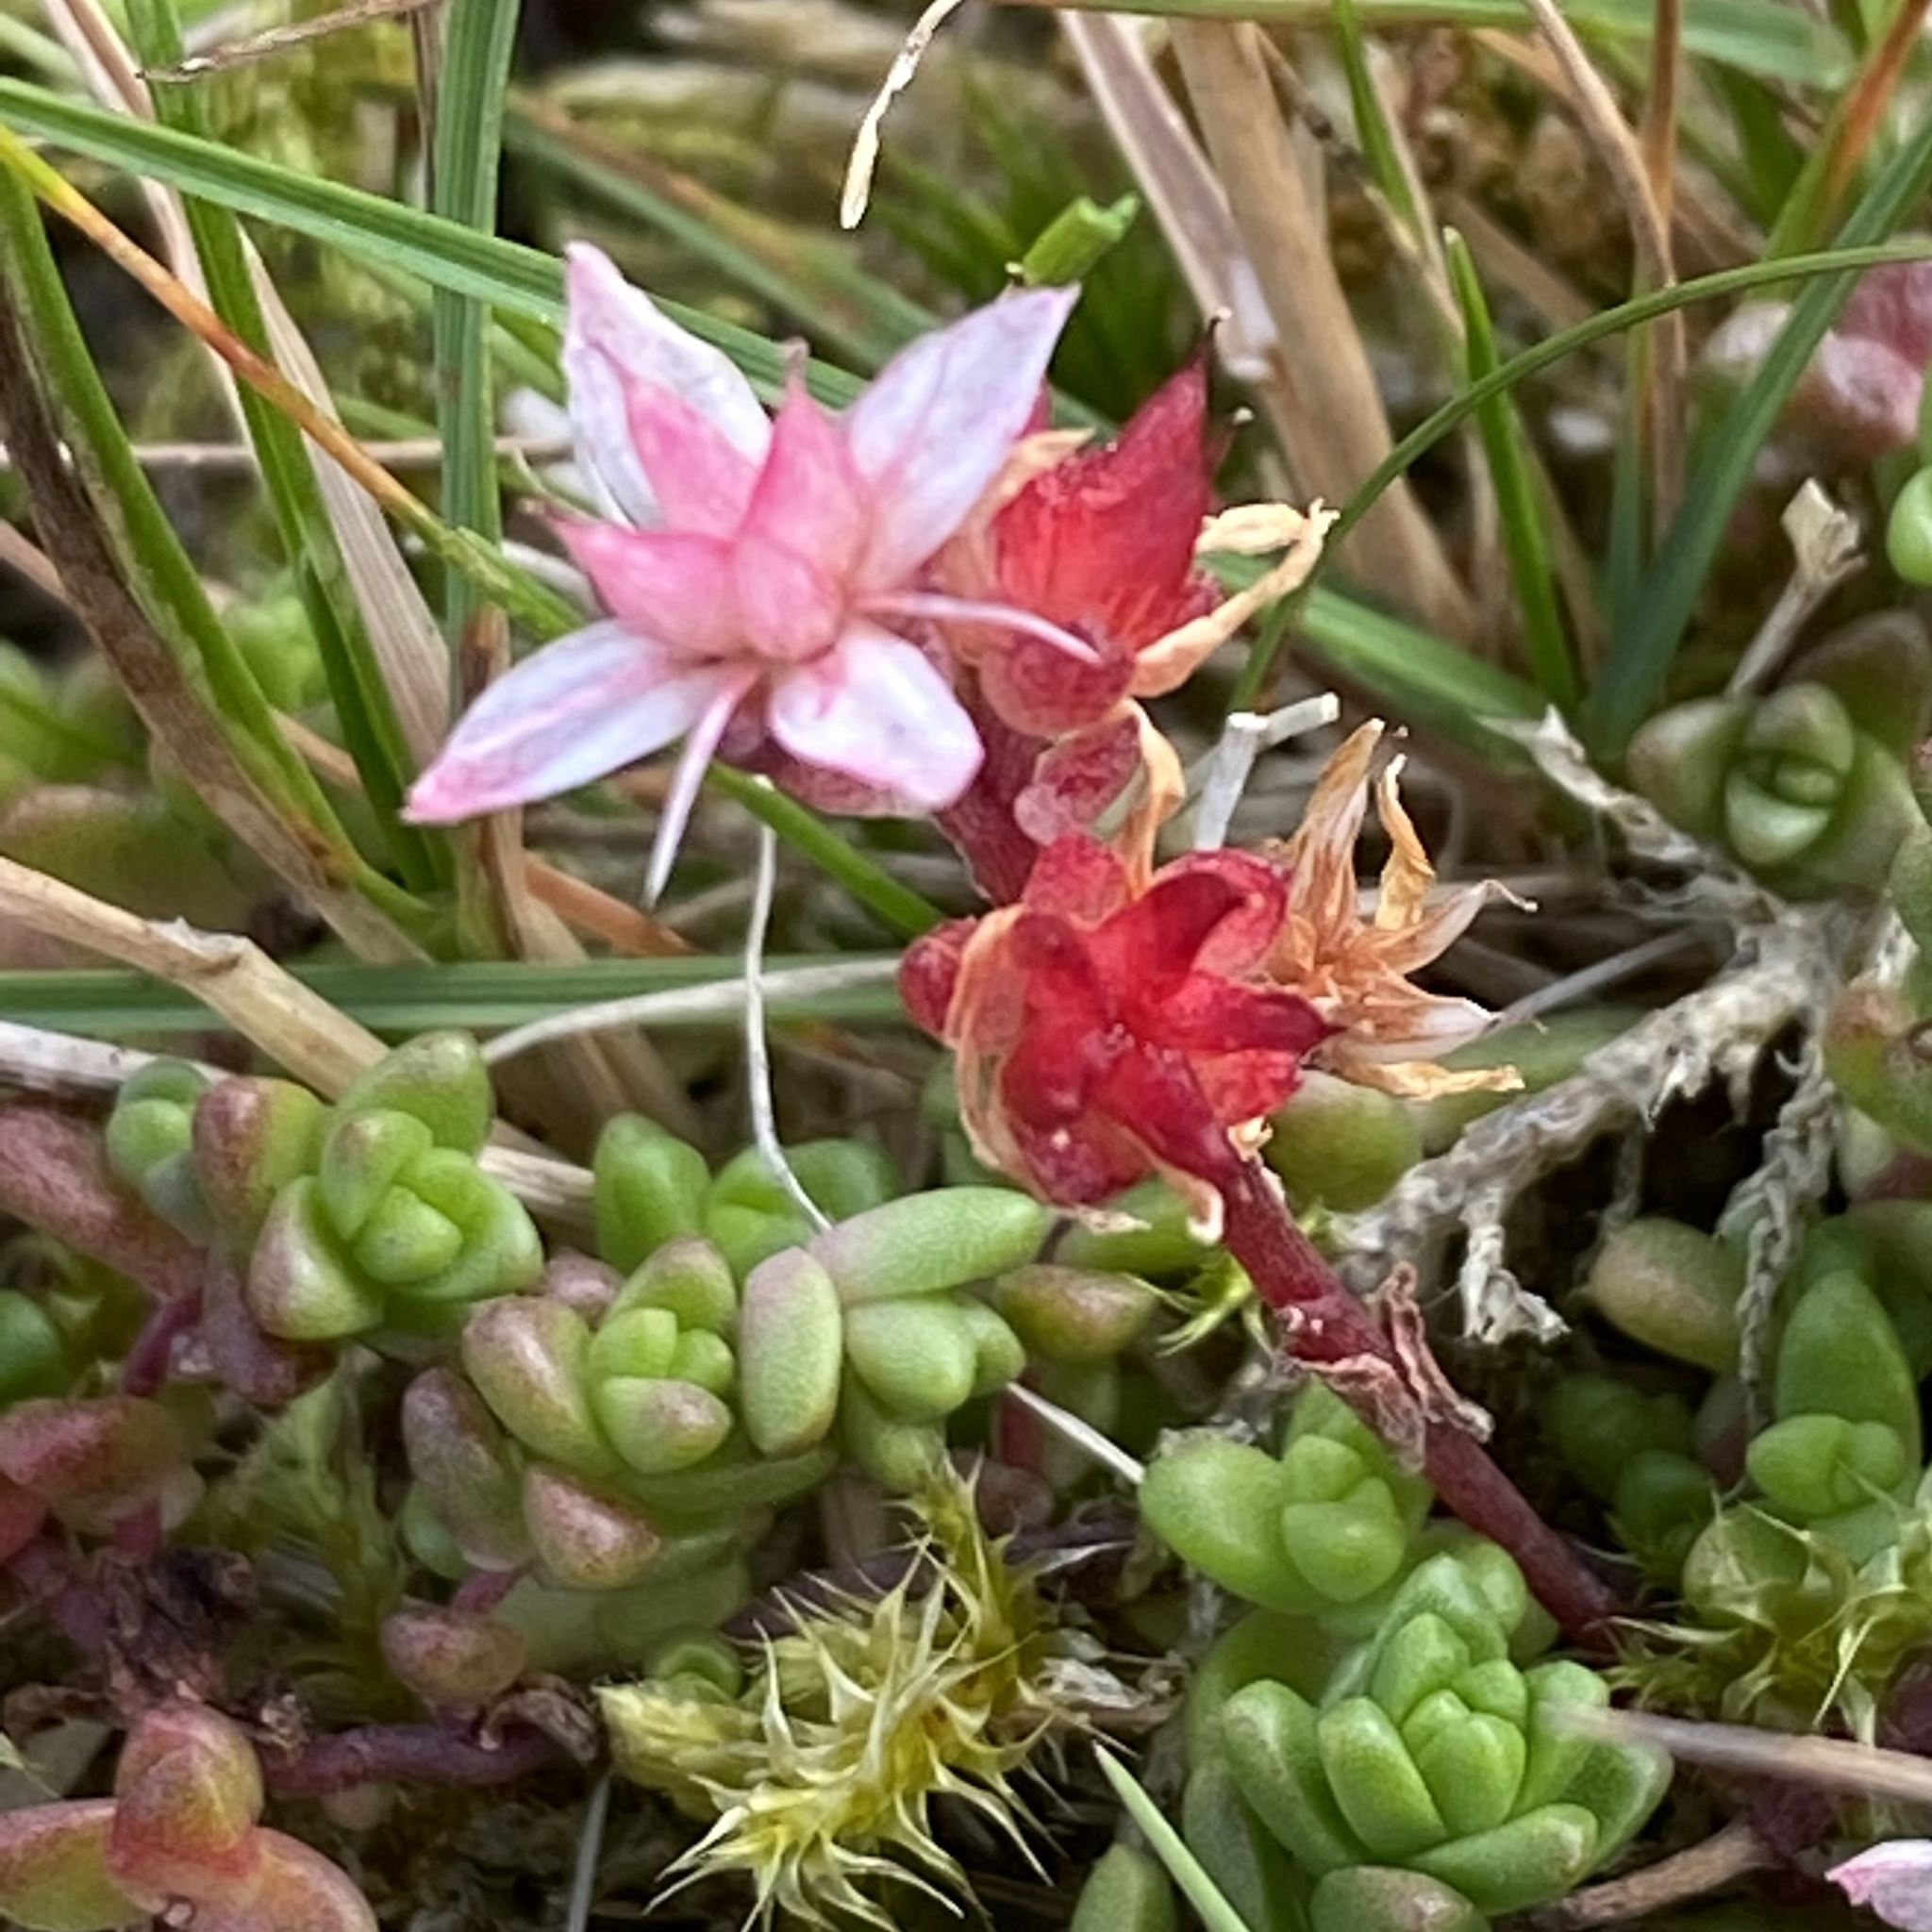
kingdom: Plantae
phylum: Tracheophyta
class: Magnoliopsida
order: Saxifragales
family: Crassulaceae
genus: Sedum
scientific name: Sedum anglicum
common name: English stonecrop
